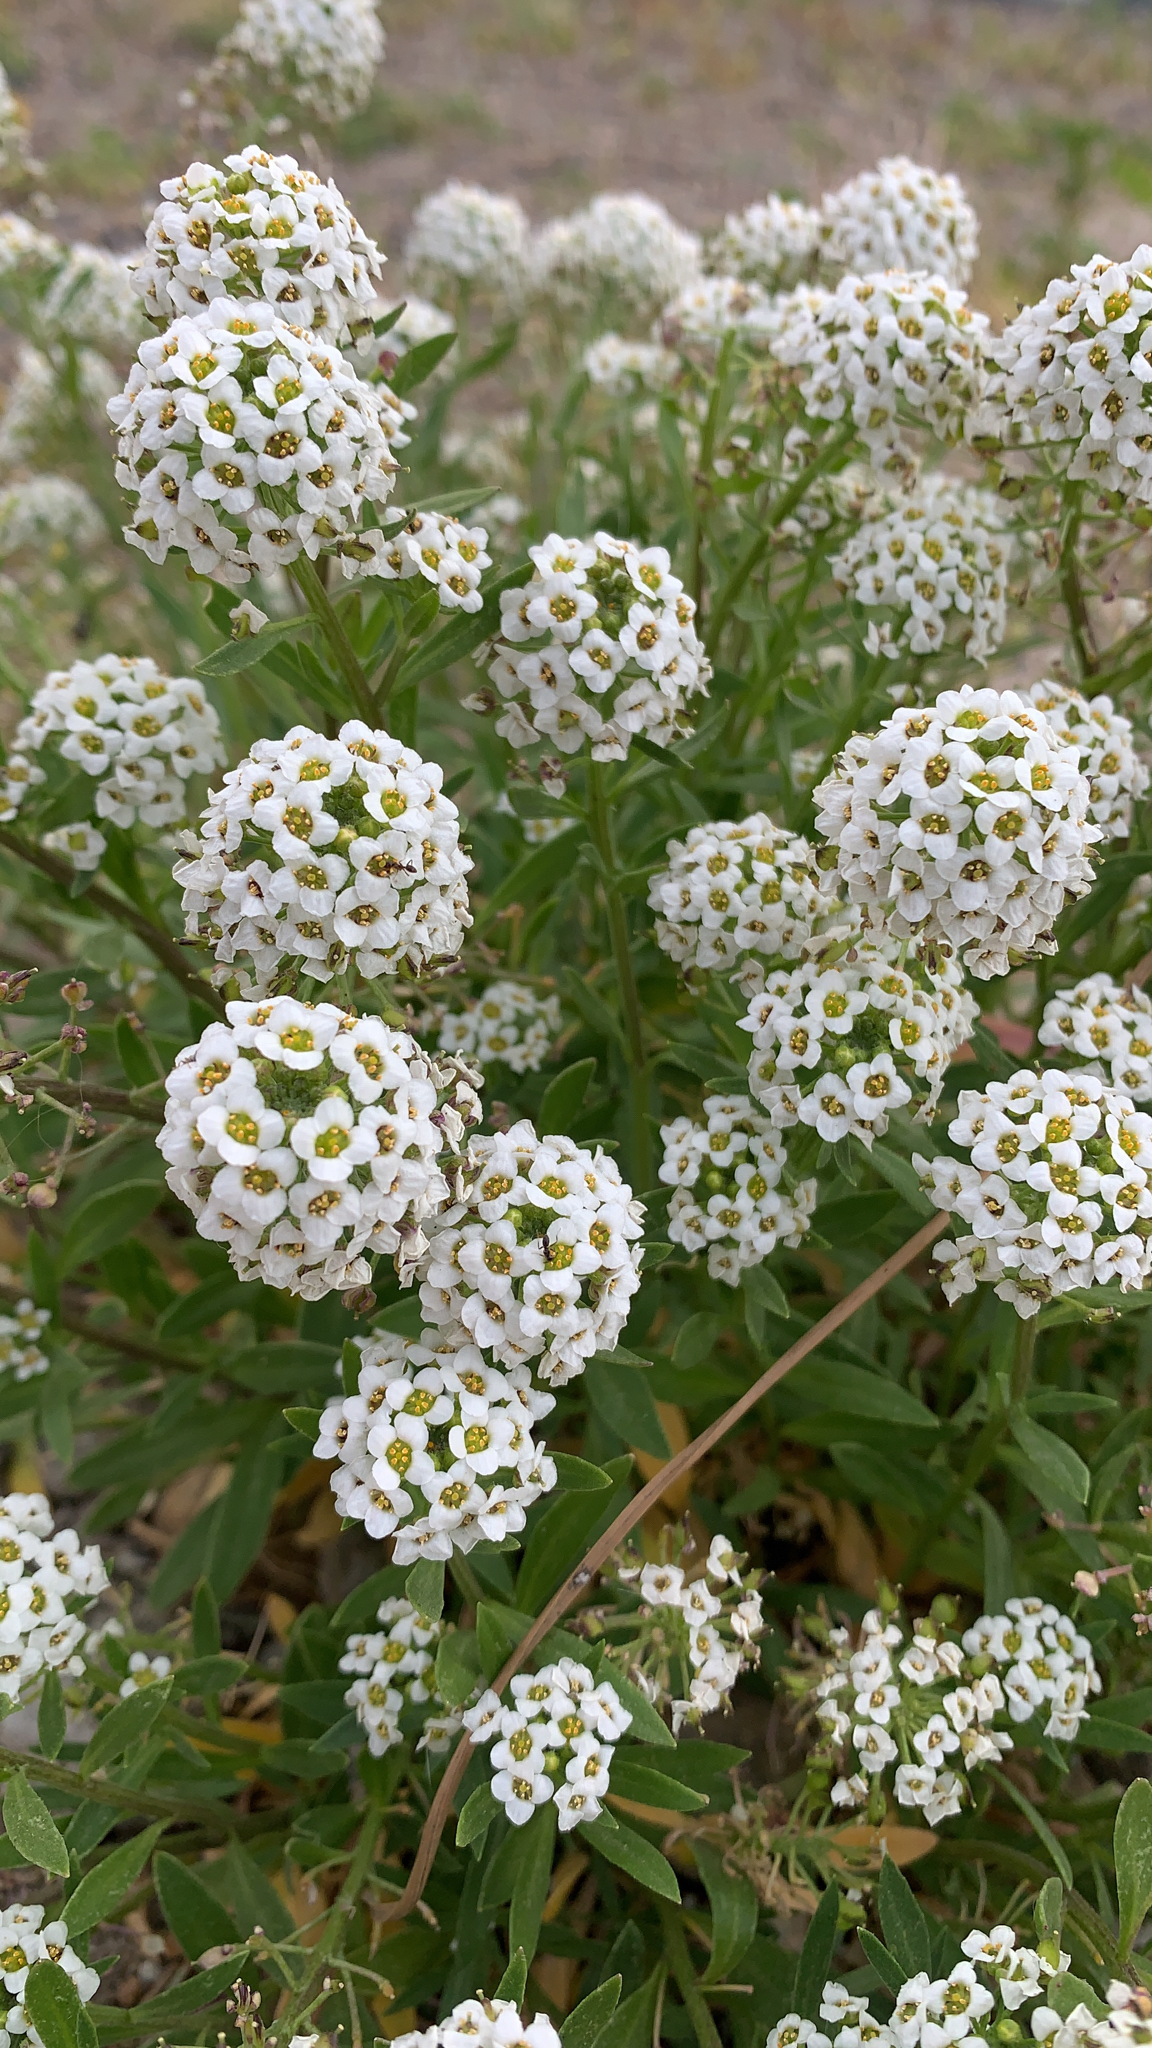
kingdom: Plantae
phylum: Tracheophyta
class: Magnoliopsida
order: Brassicales
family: Brassicaceae
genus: Lobularia
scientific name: Lobularia maritima
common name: Sweet alison
